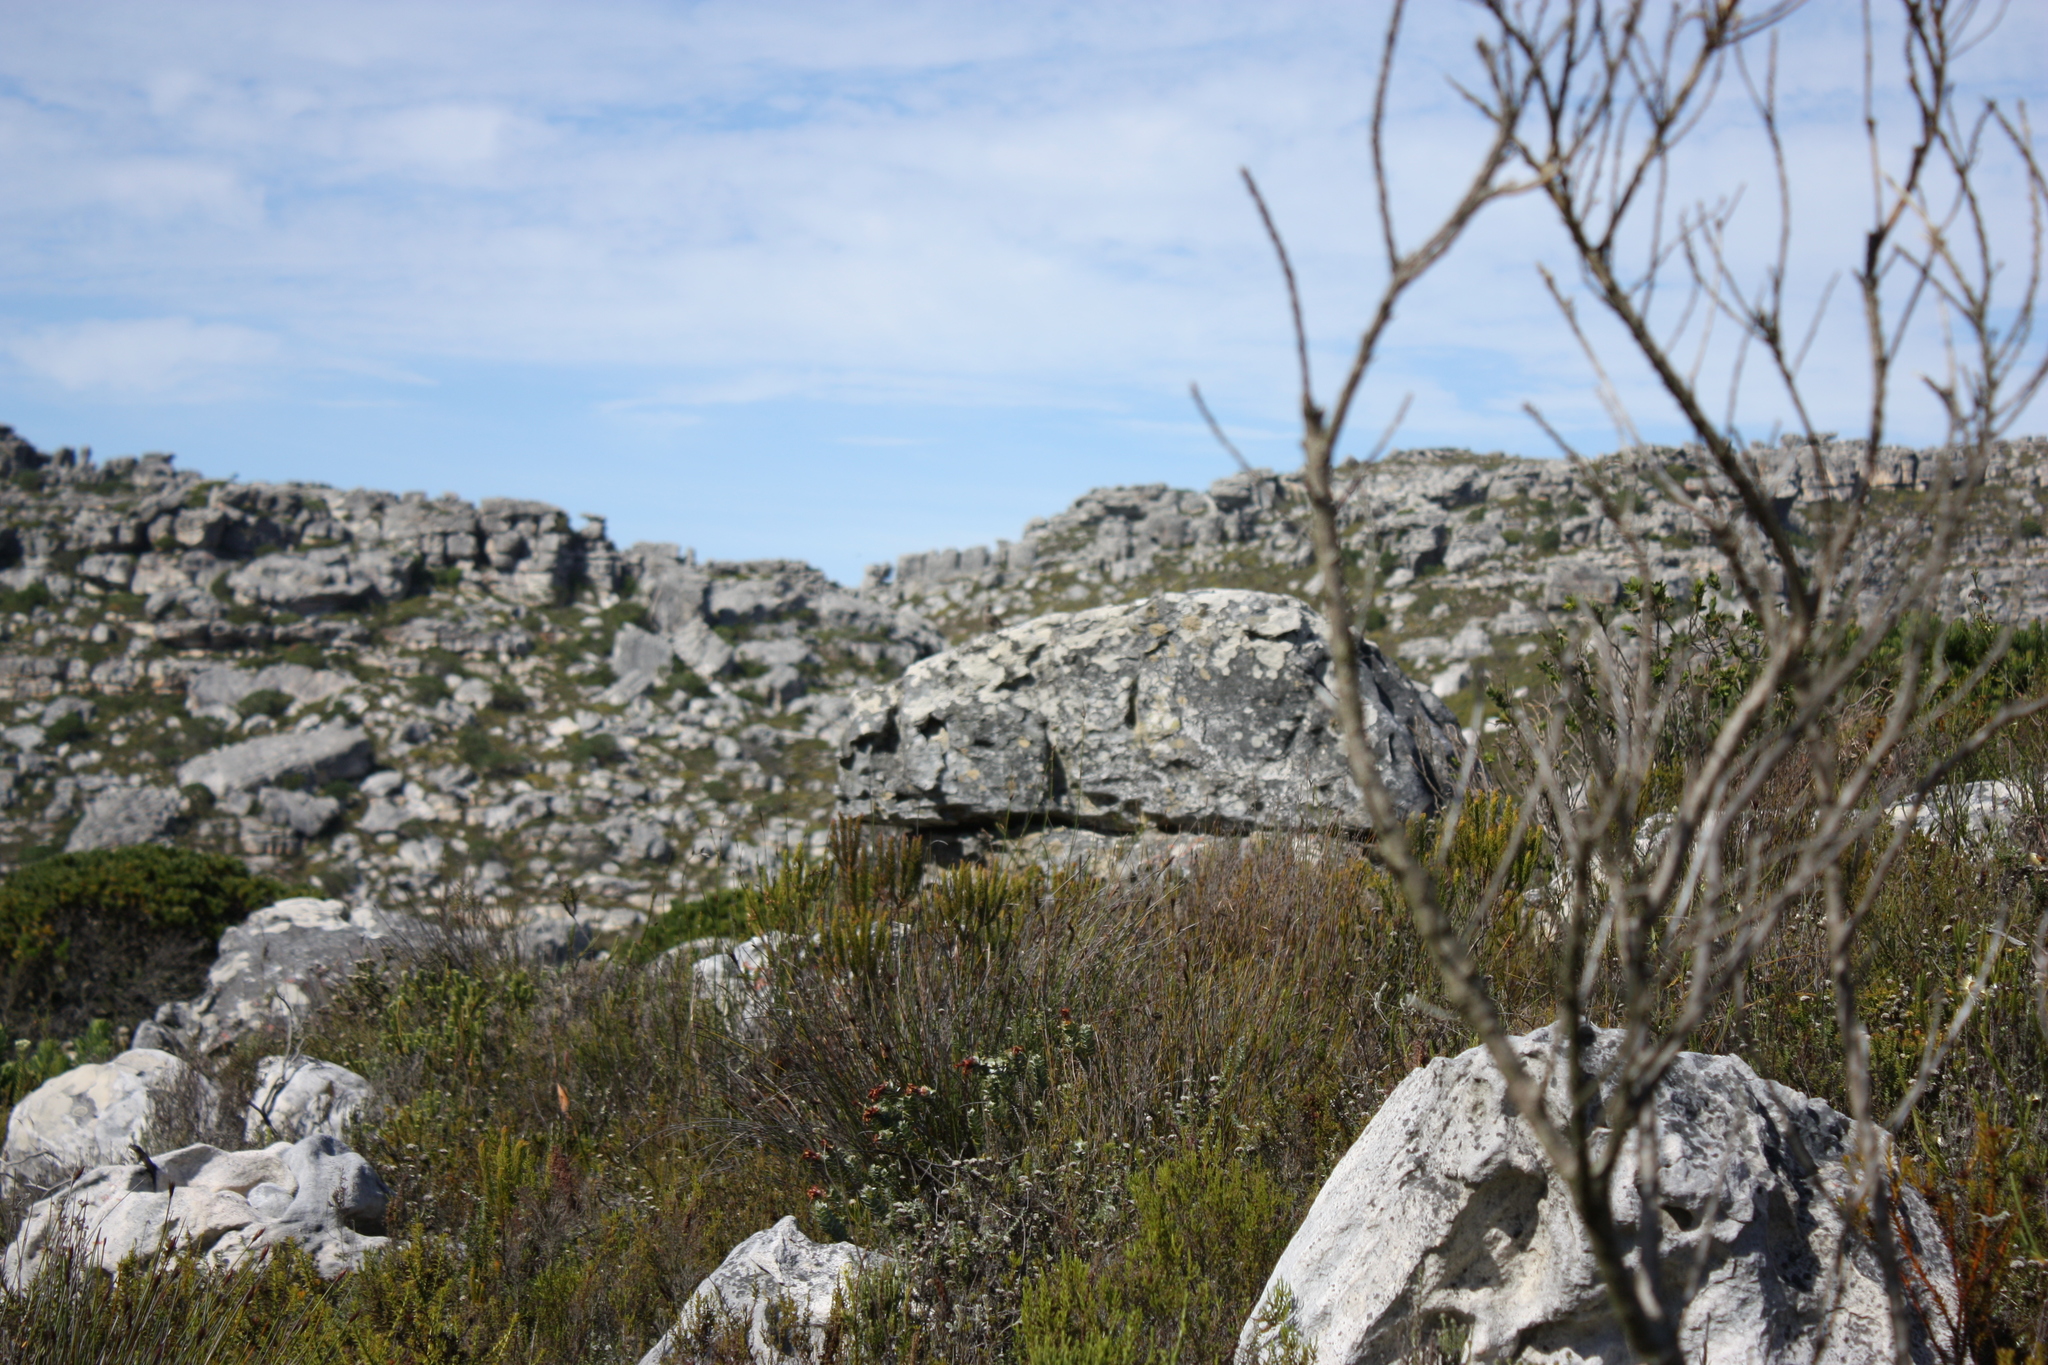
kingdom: Animalia
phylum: Chordata
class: Aves
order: Passeriformes
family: Muscicapidae
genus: Oenanthe
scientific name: Oenanthe familiaris
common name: Familiar chat
